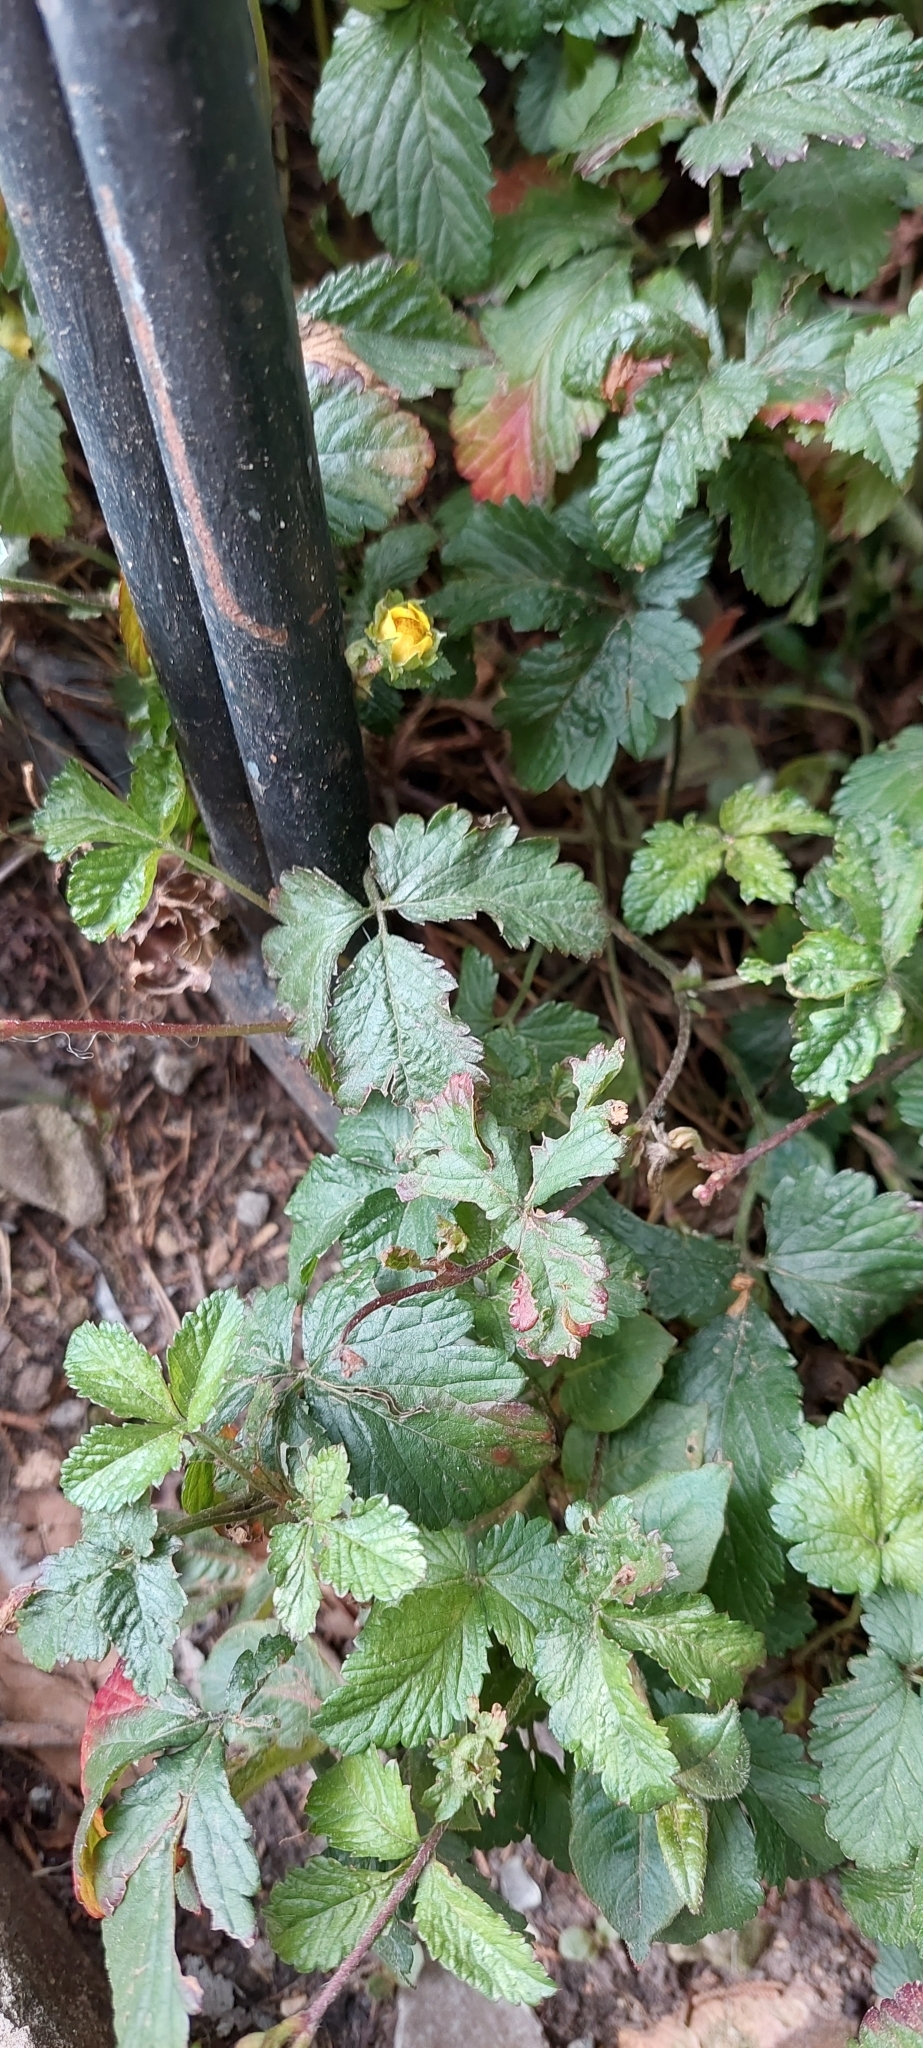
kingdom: Plantae
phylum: Tracheophyta
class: Magnoliopsida
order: Rosales
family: Rosaceae
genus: Potentilla
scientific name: Potentilla indica
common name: Yellow-flowered strawberry
